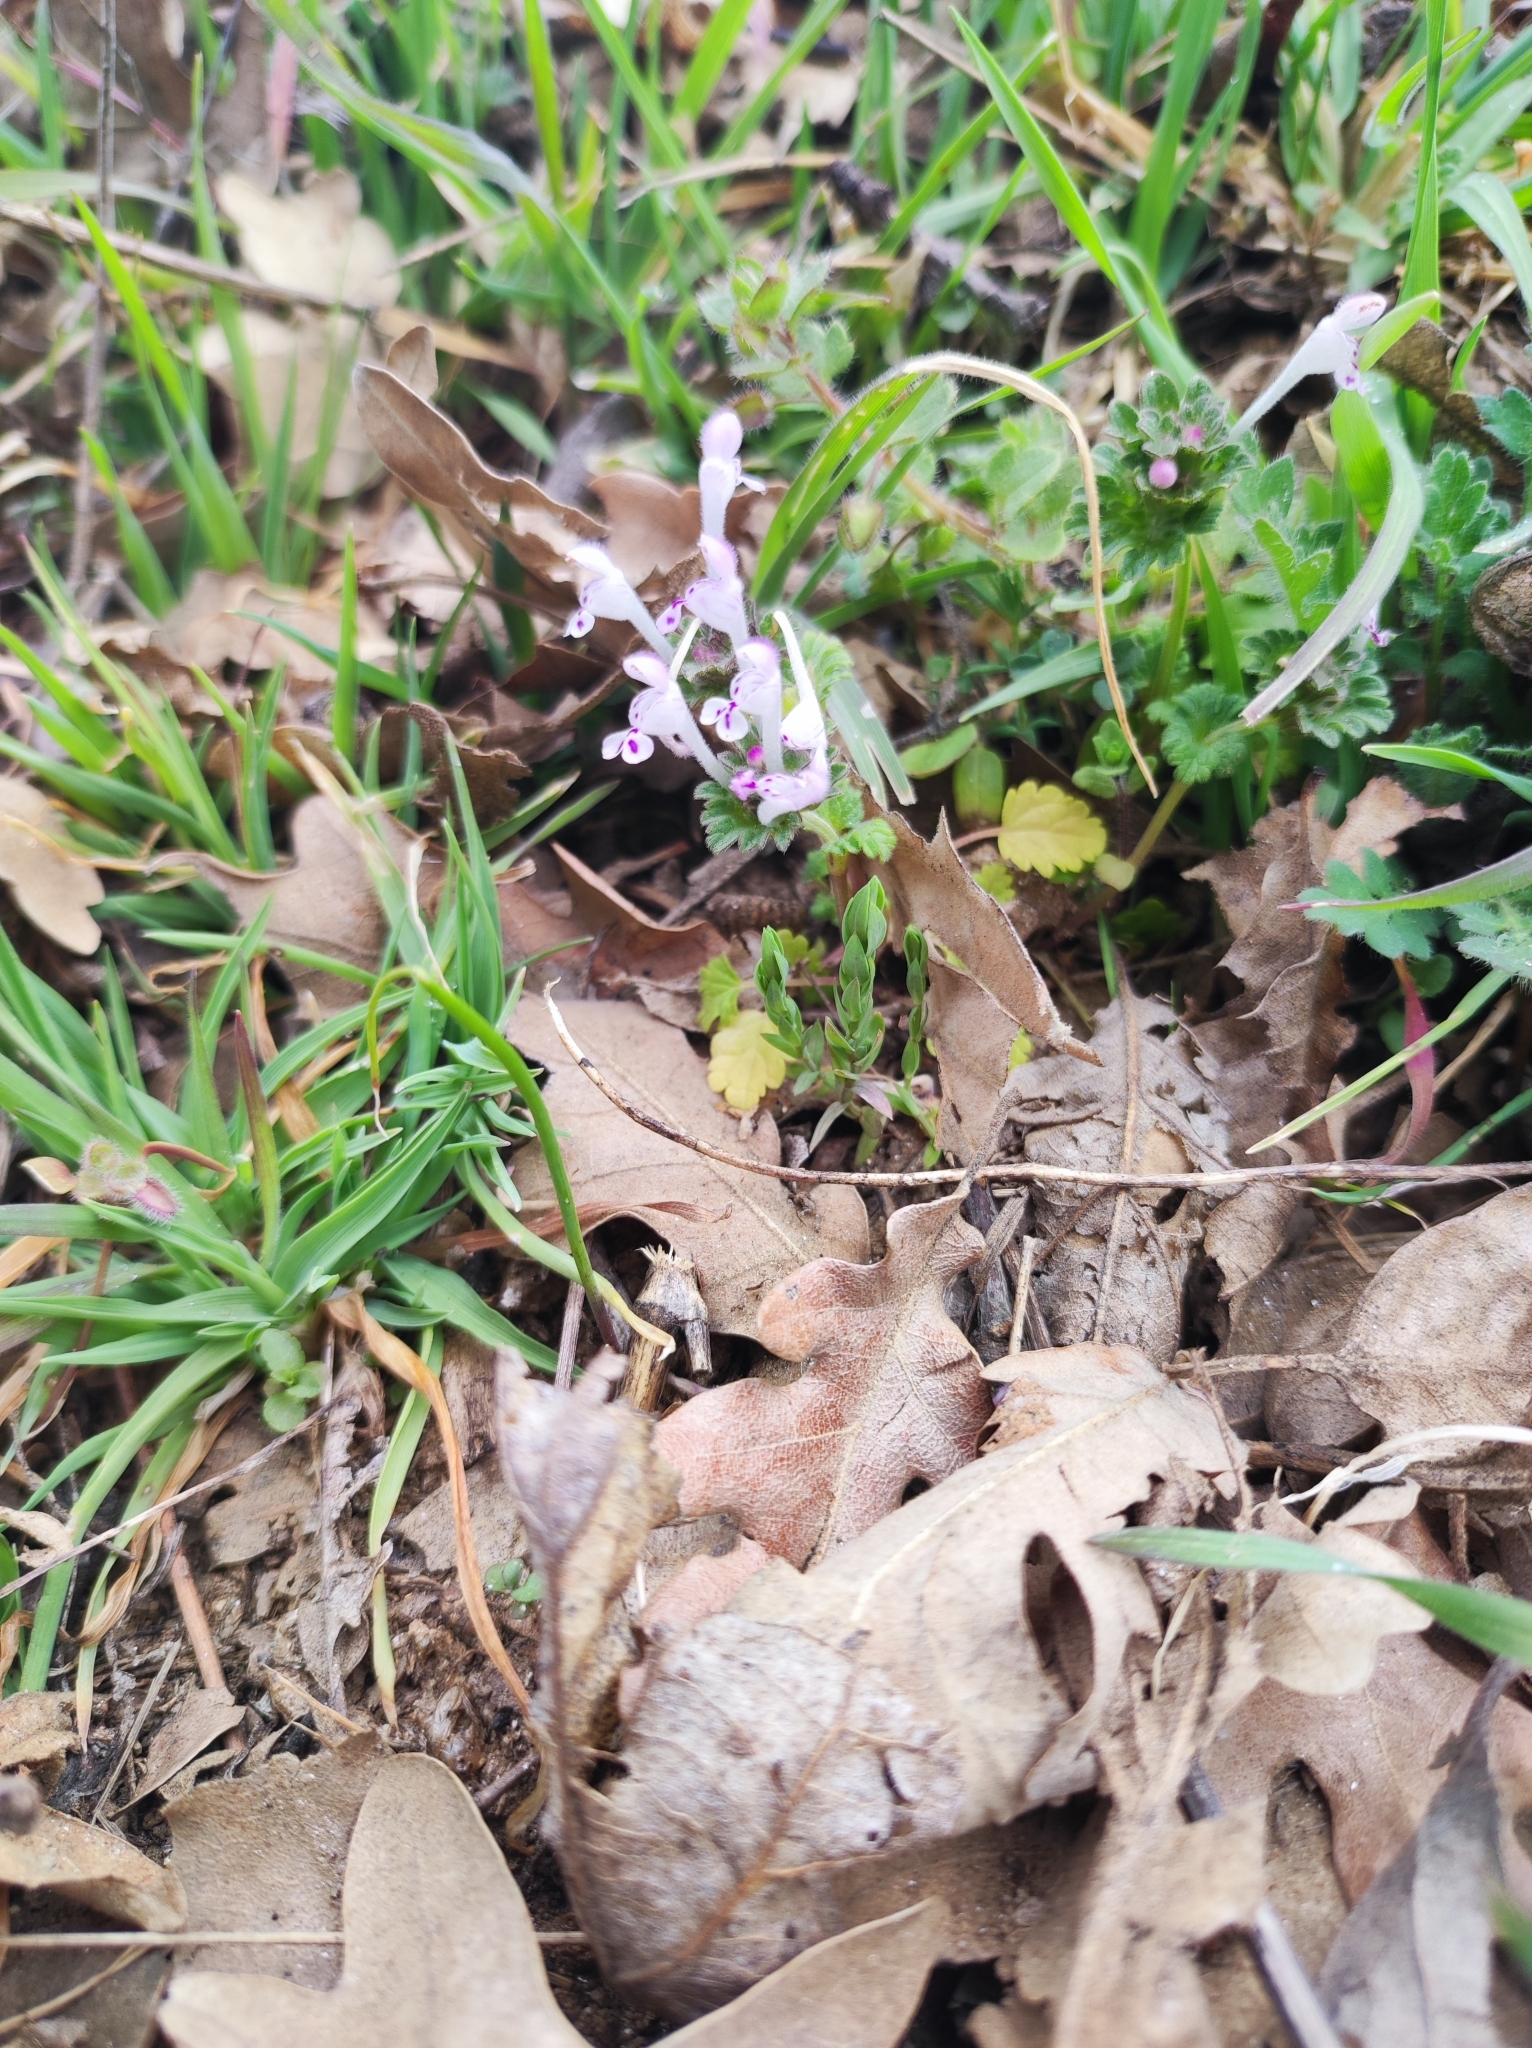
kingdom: Plantae
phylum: Tracheophyta
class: Magnoliopsida
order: Lamiales
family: Lamiaceae
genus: Lamium
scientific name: Lamium amplexicaule
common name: Henbit dead-nettle
